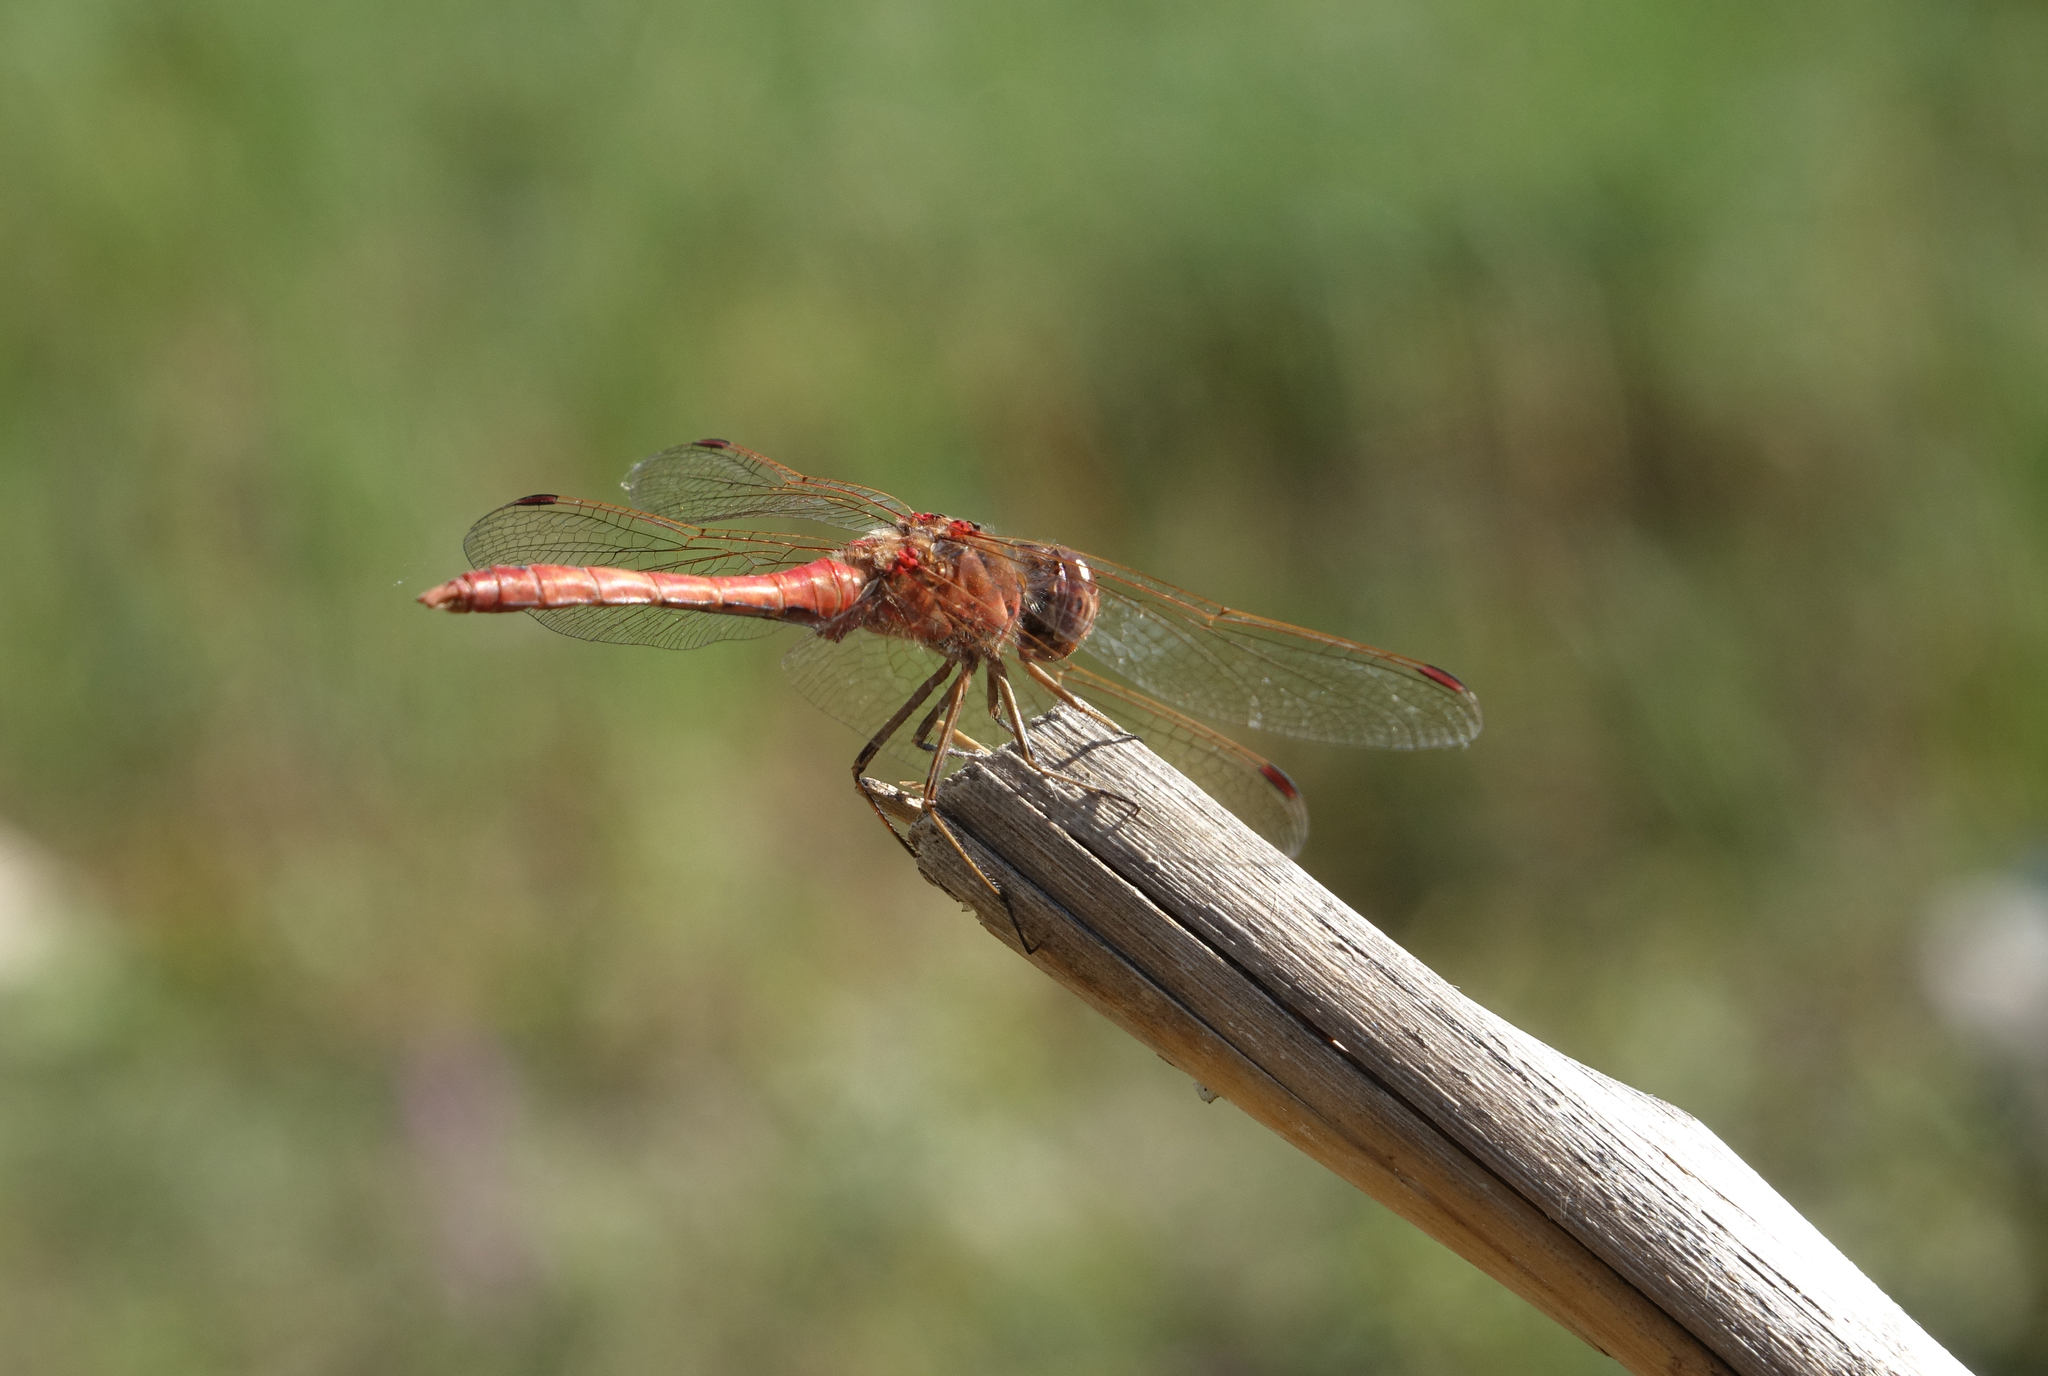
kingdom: Animalia
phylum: Arthropoda
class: Insecta
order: Odonata
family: Libellulidae
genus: Sympetrum
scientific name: Sympetrum vulgatum
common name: Vagrant darter
